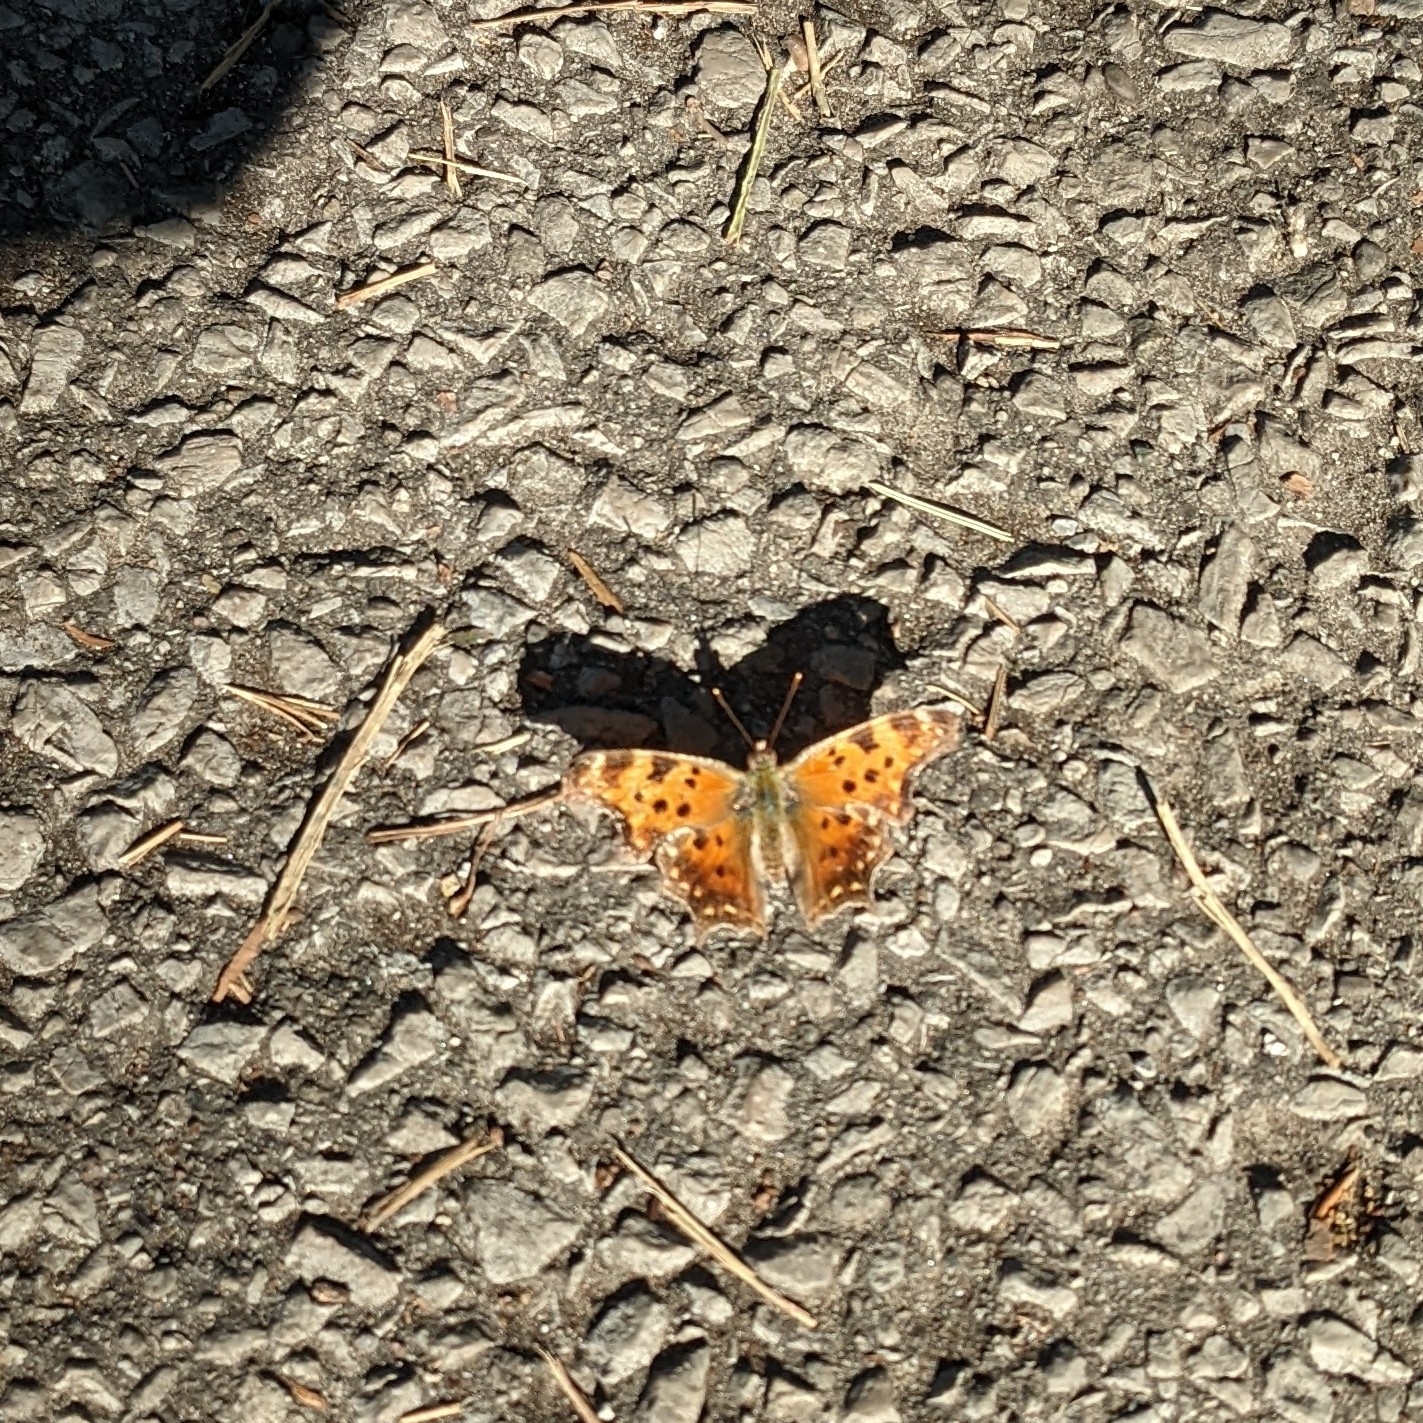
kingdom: Animalia
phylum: Arthropoda
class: Insecta
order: Lepidoptera
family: Nymphalidae
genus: Polygonia
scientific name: Polygonia comma
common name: Eastern comma
